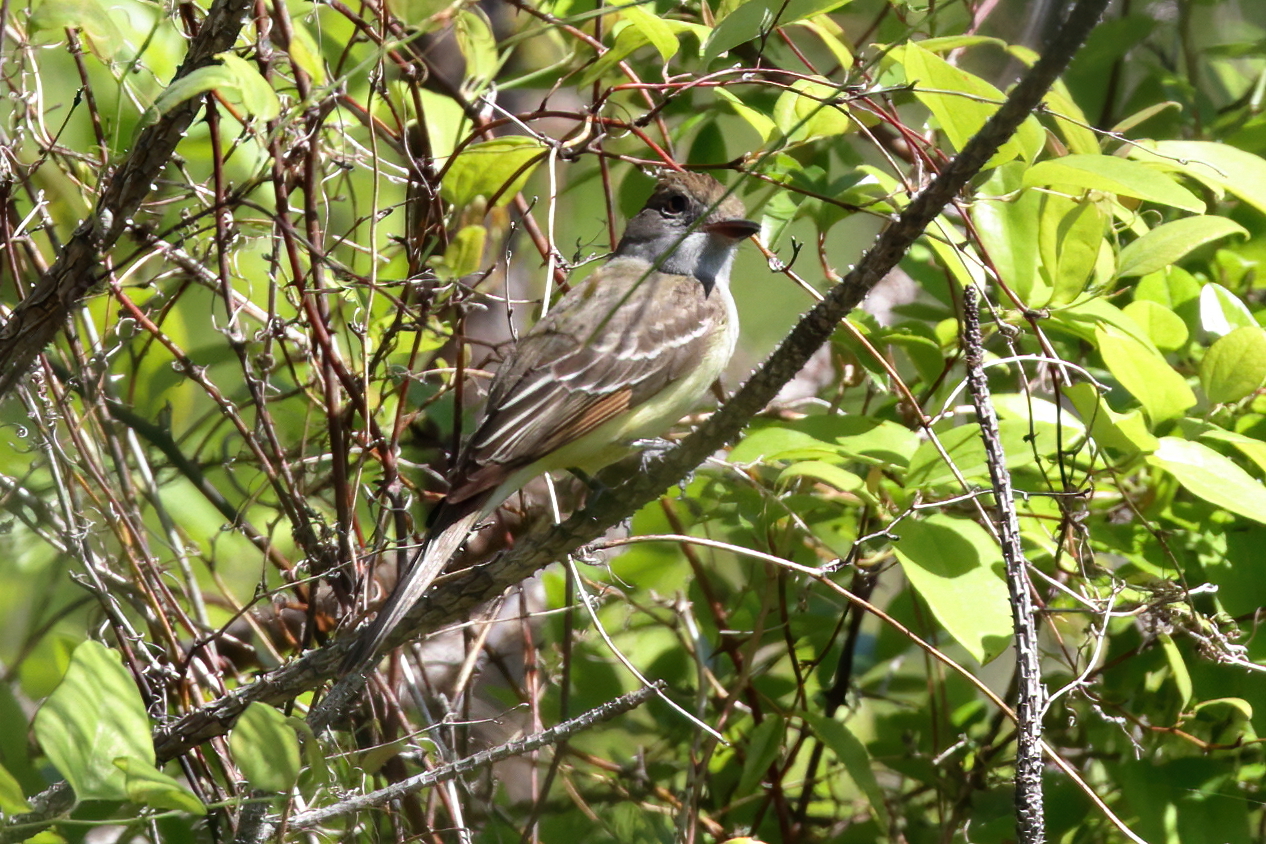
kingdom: Animalia
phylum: Chordata
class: Aves
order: Passeriformes
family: Tyrannidae
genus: Myiarchus
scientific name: Myiarchus crinitus
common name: Great crested flycatcher
